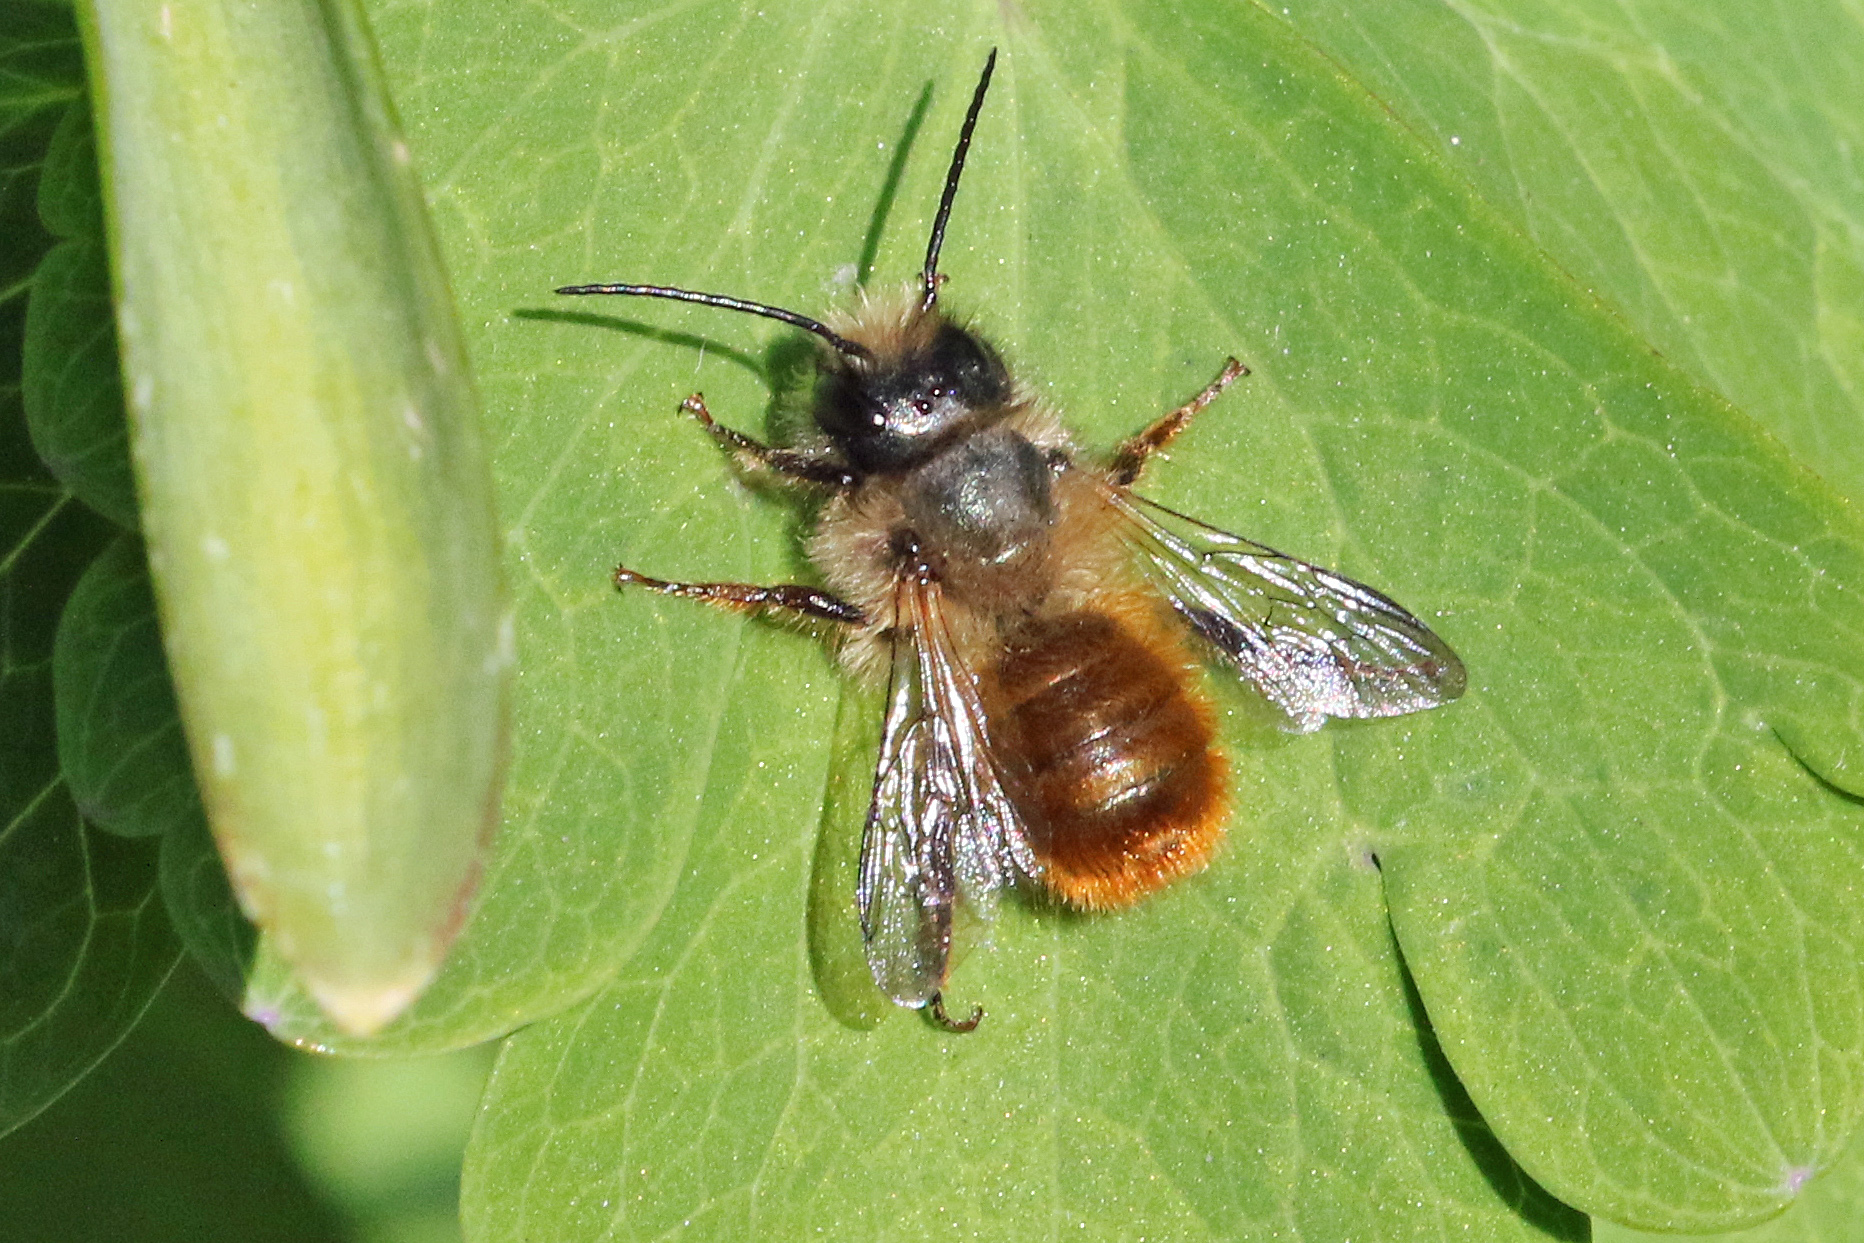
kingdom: Animalia
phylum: Arthropoda
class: Insecta
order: Hymenoptera
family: Megachilidae
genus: Osmia
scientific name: Osmia bicornis
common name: Red mason bee
